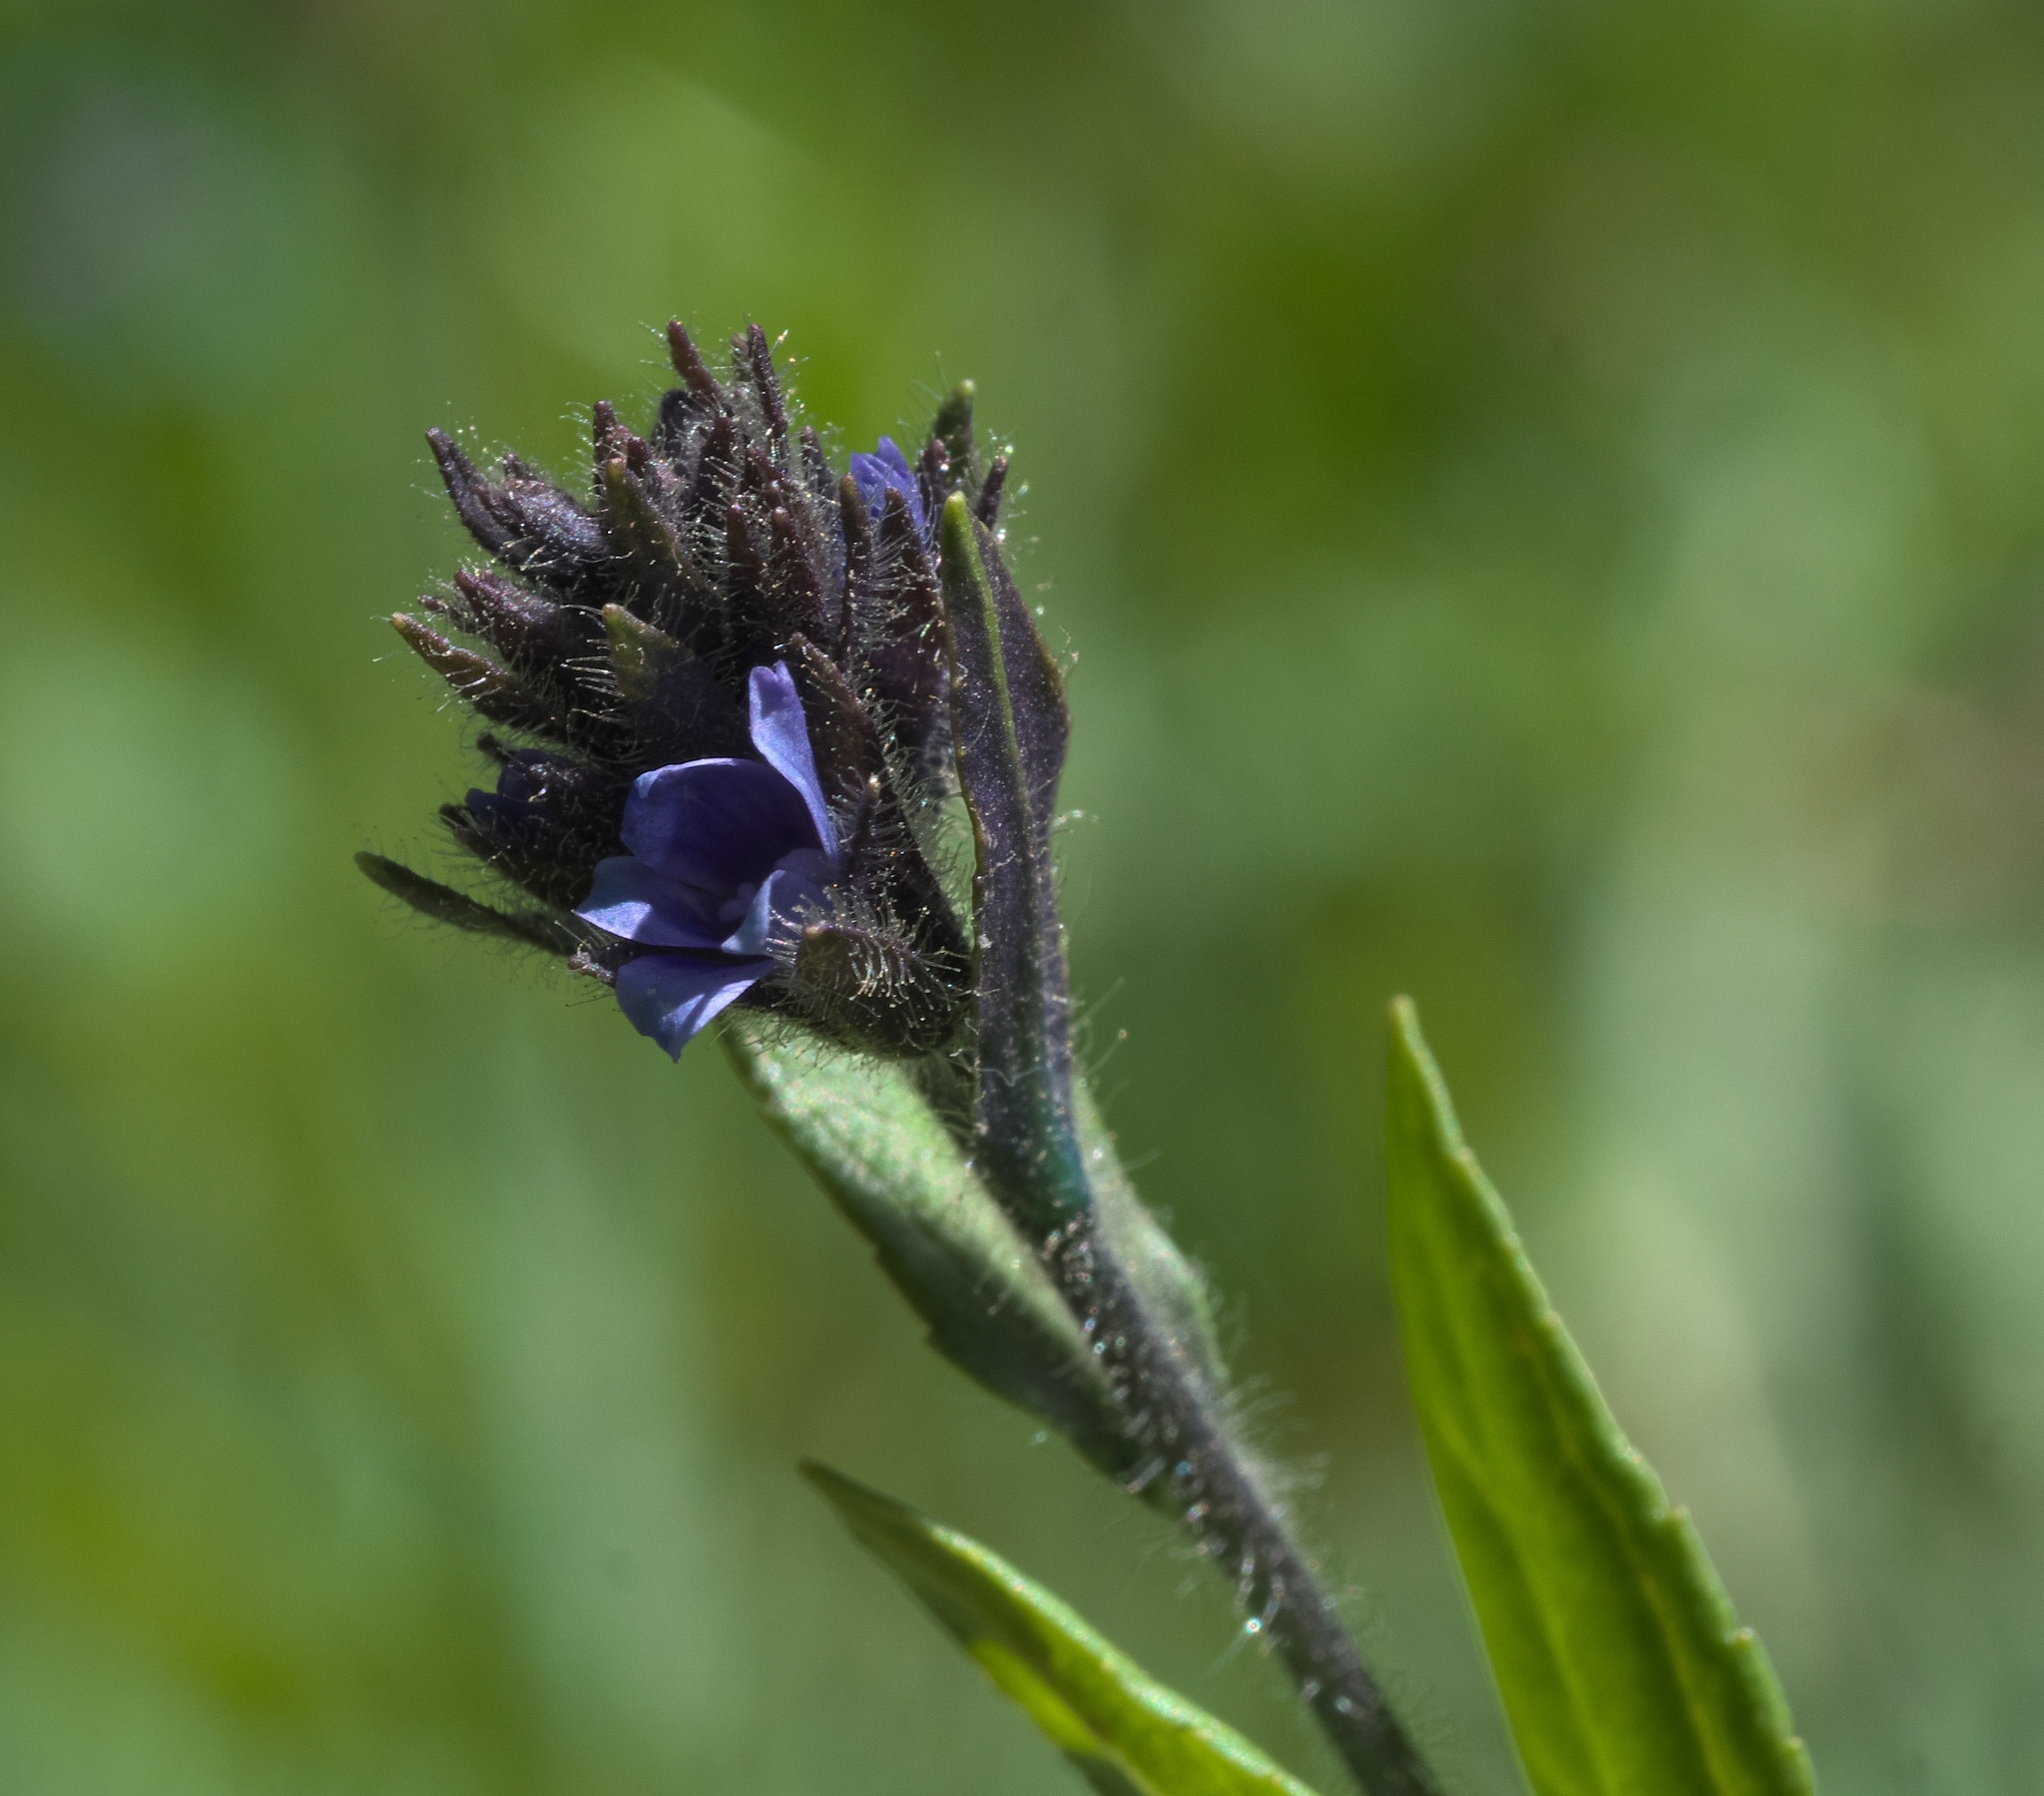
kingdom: Plantae
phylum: Tracheophyta
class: Magnoliopsida
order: Lamiales
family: Plantaginaceae
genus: Veronica
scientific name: Veronica wormskjoldii
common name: American alpine speedwell
